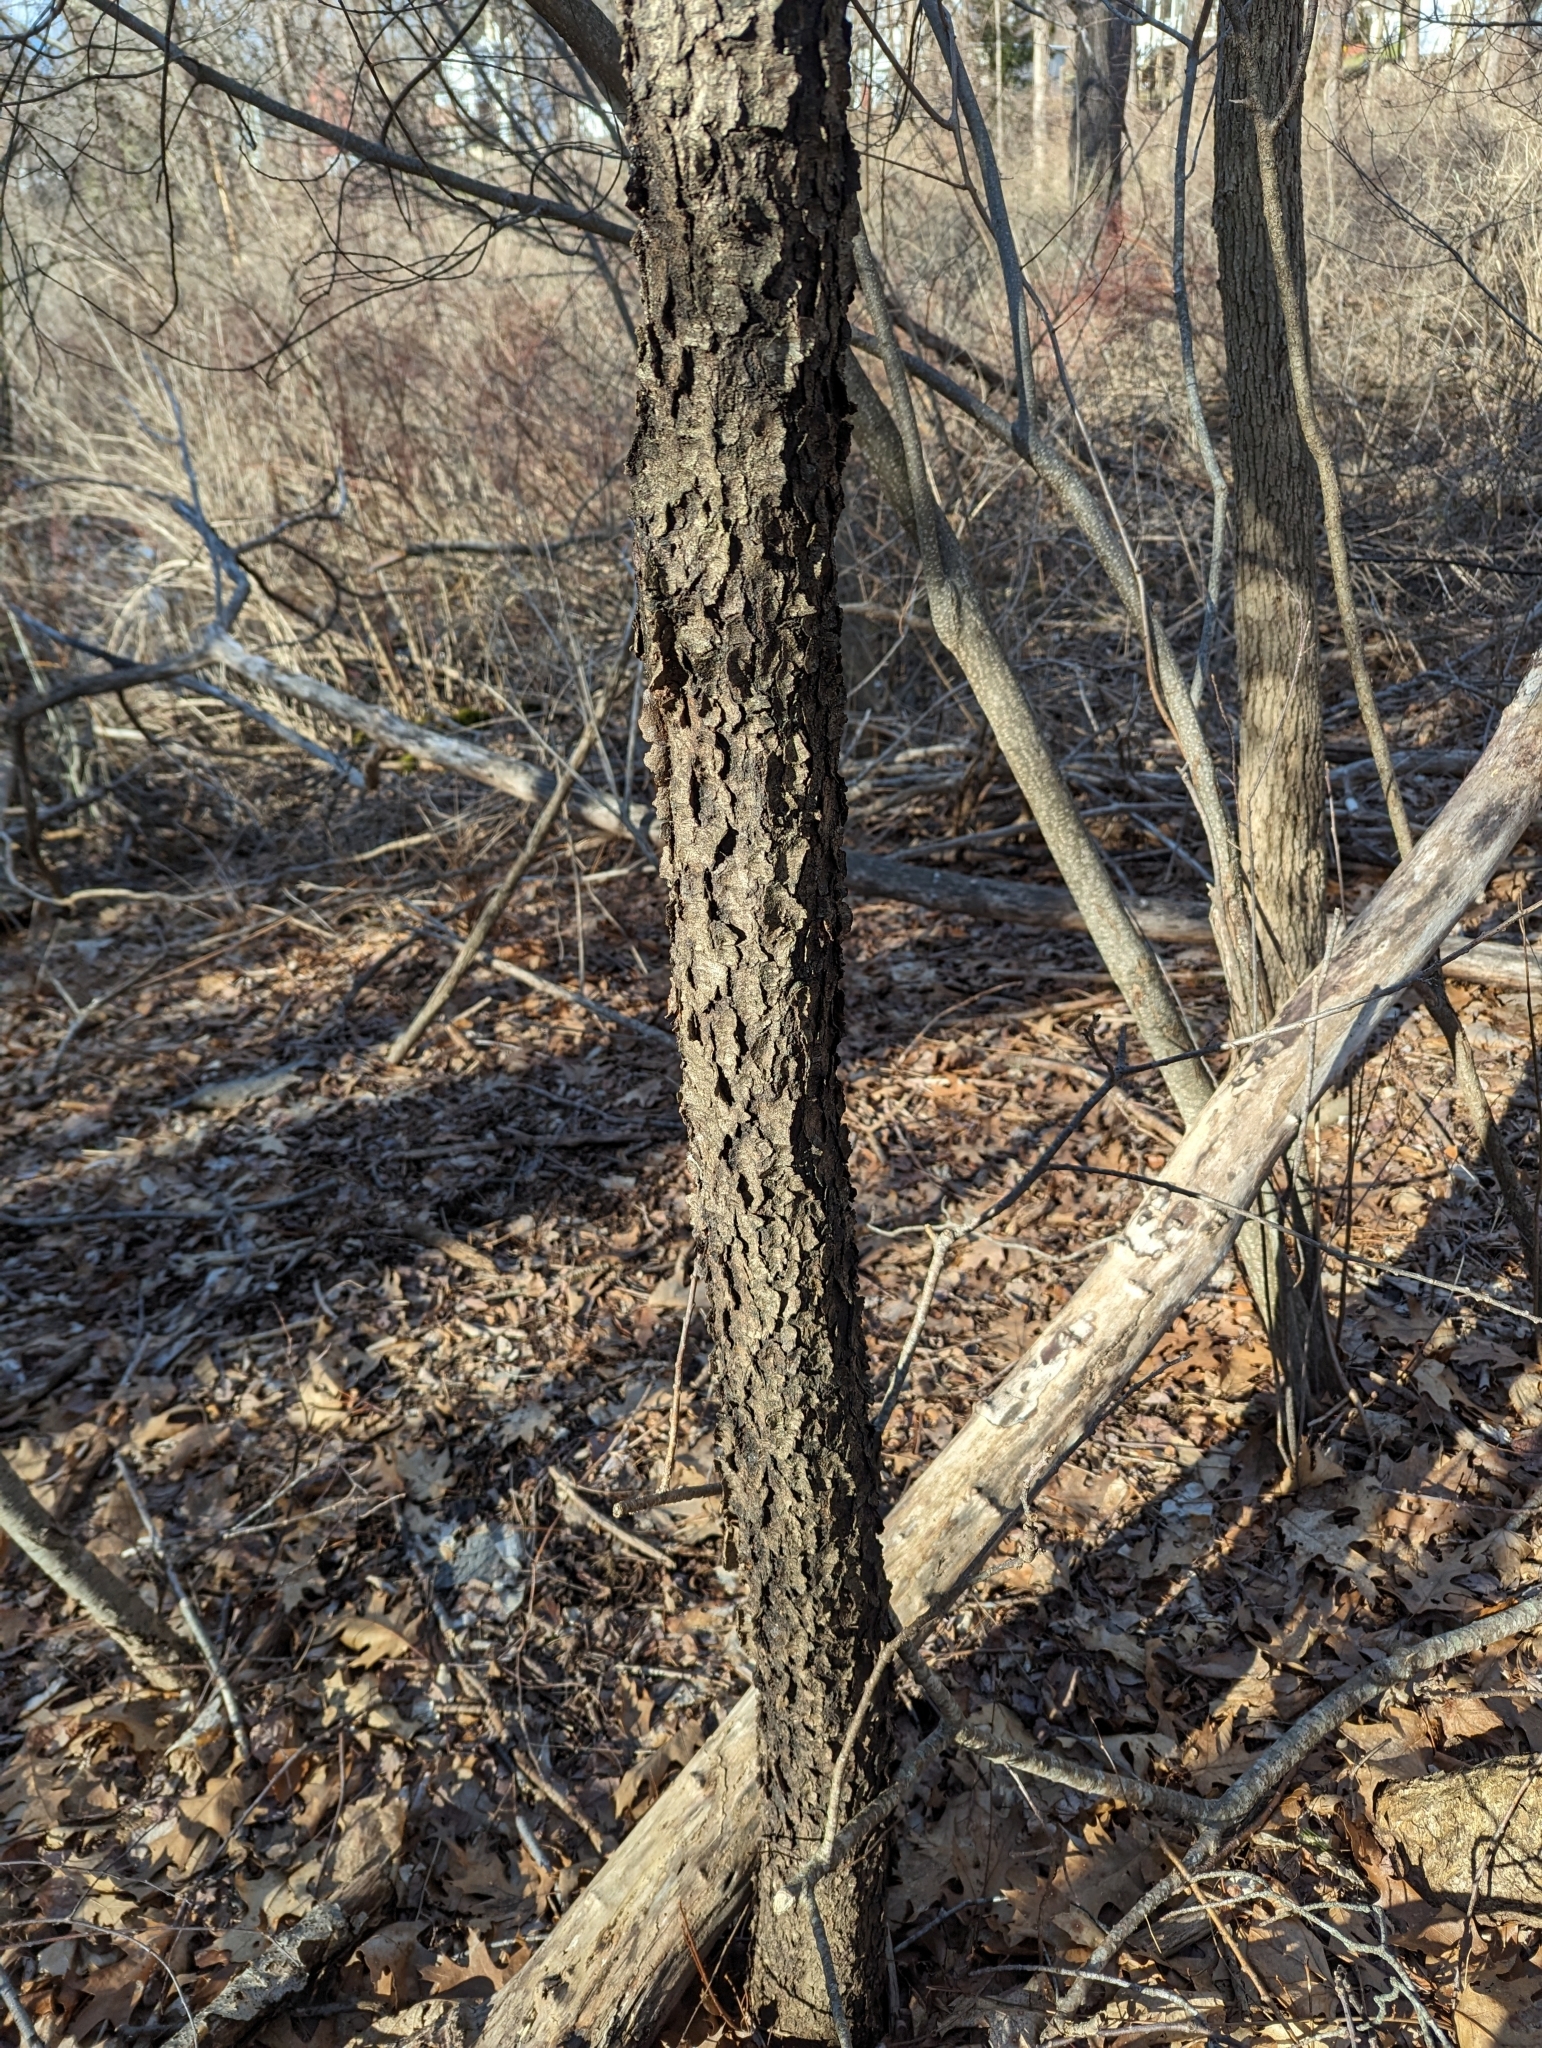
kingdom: Plantae
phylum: Tracheophyta
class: Magnoliopsida
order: Rosales
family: Rosaceae
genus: Prunus
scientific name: Prunus serotina
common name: Black cherry
